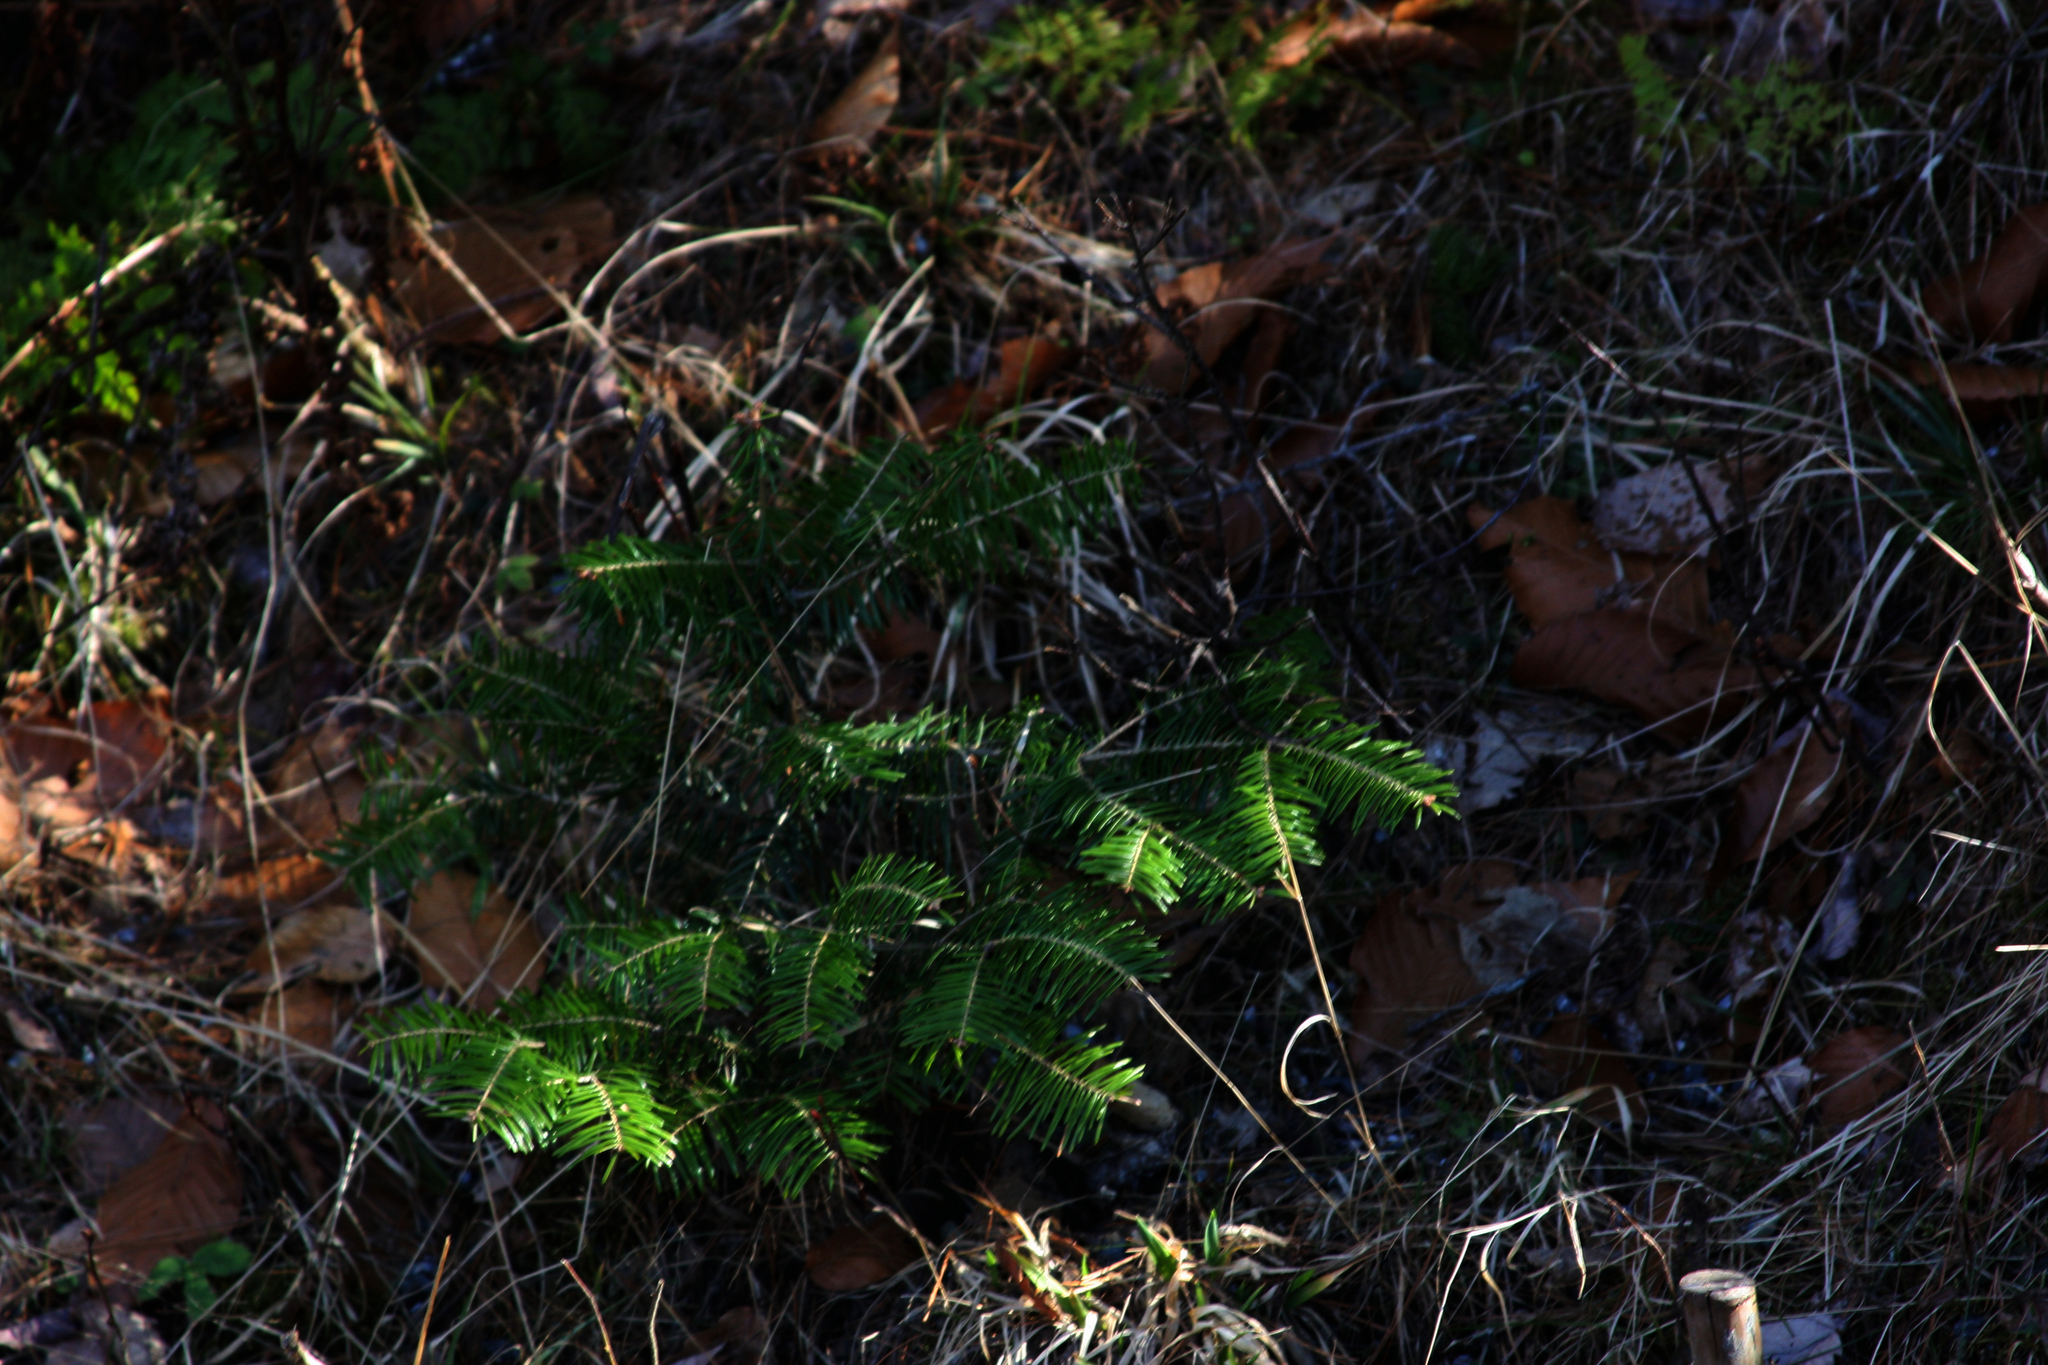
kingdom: Plantae
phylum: Tracheophyta
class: Pinopsida
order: Pinales
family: Pinaceae
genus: Abies
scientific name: Abies balsamea
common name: Balsam fir
